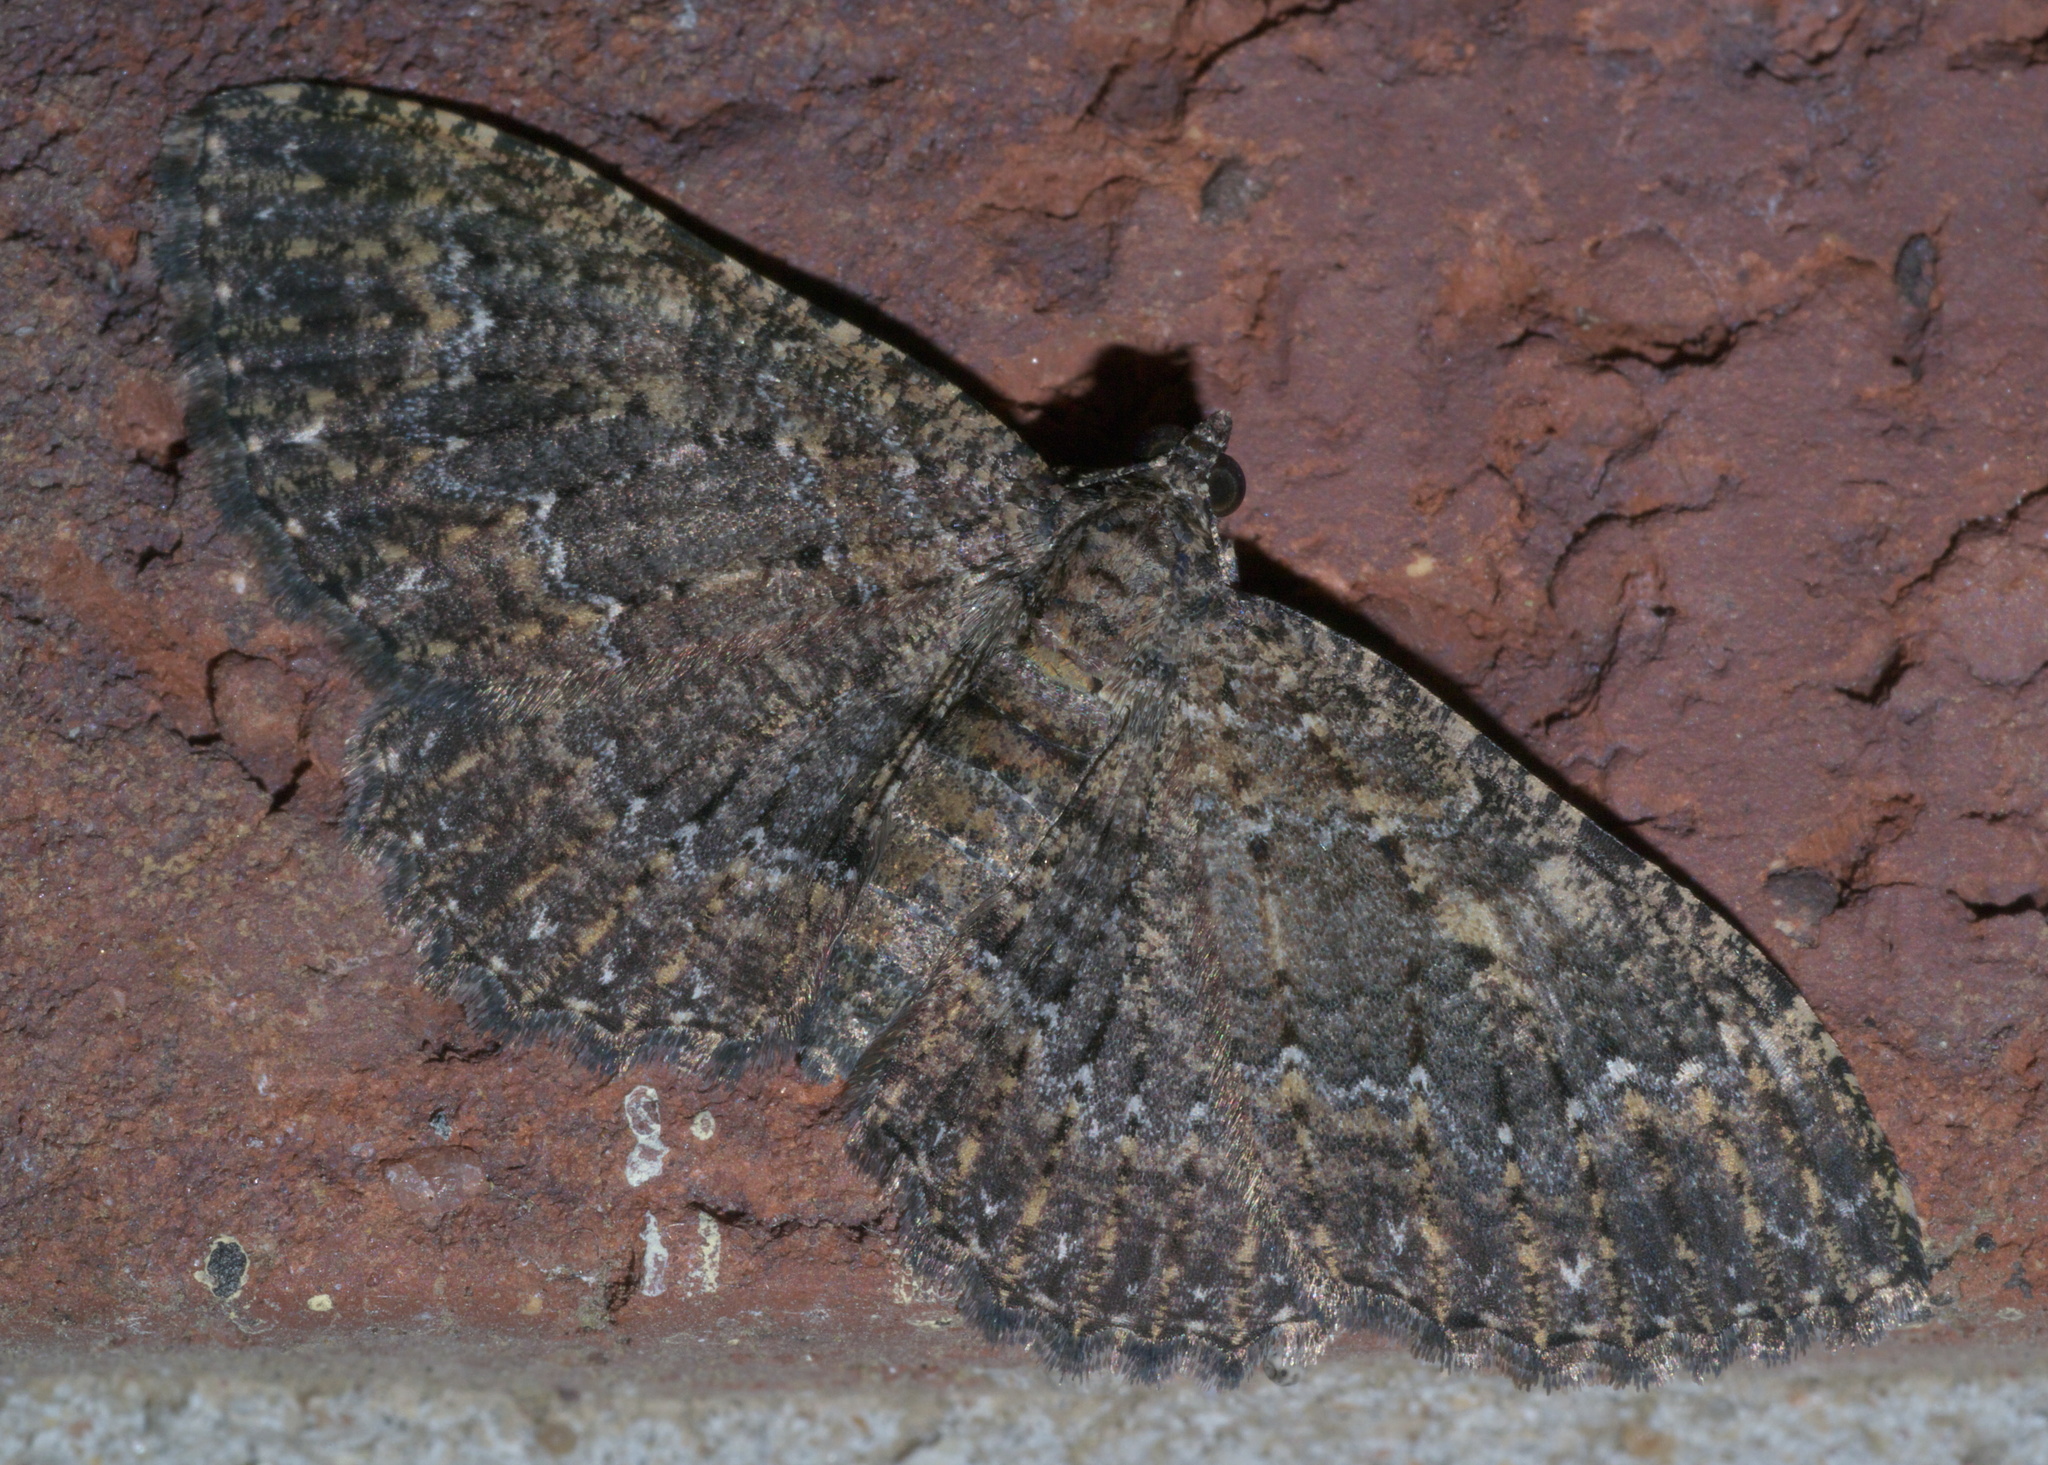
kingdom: Animalia
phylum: Arthropoda
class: Insecta
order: Lepidoptera
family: Geometridae
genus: Disclisioprocta
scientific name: Disclisioprocta stellata
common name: Somber carpet
